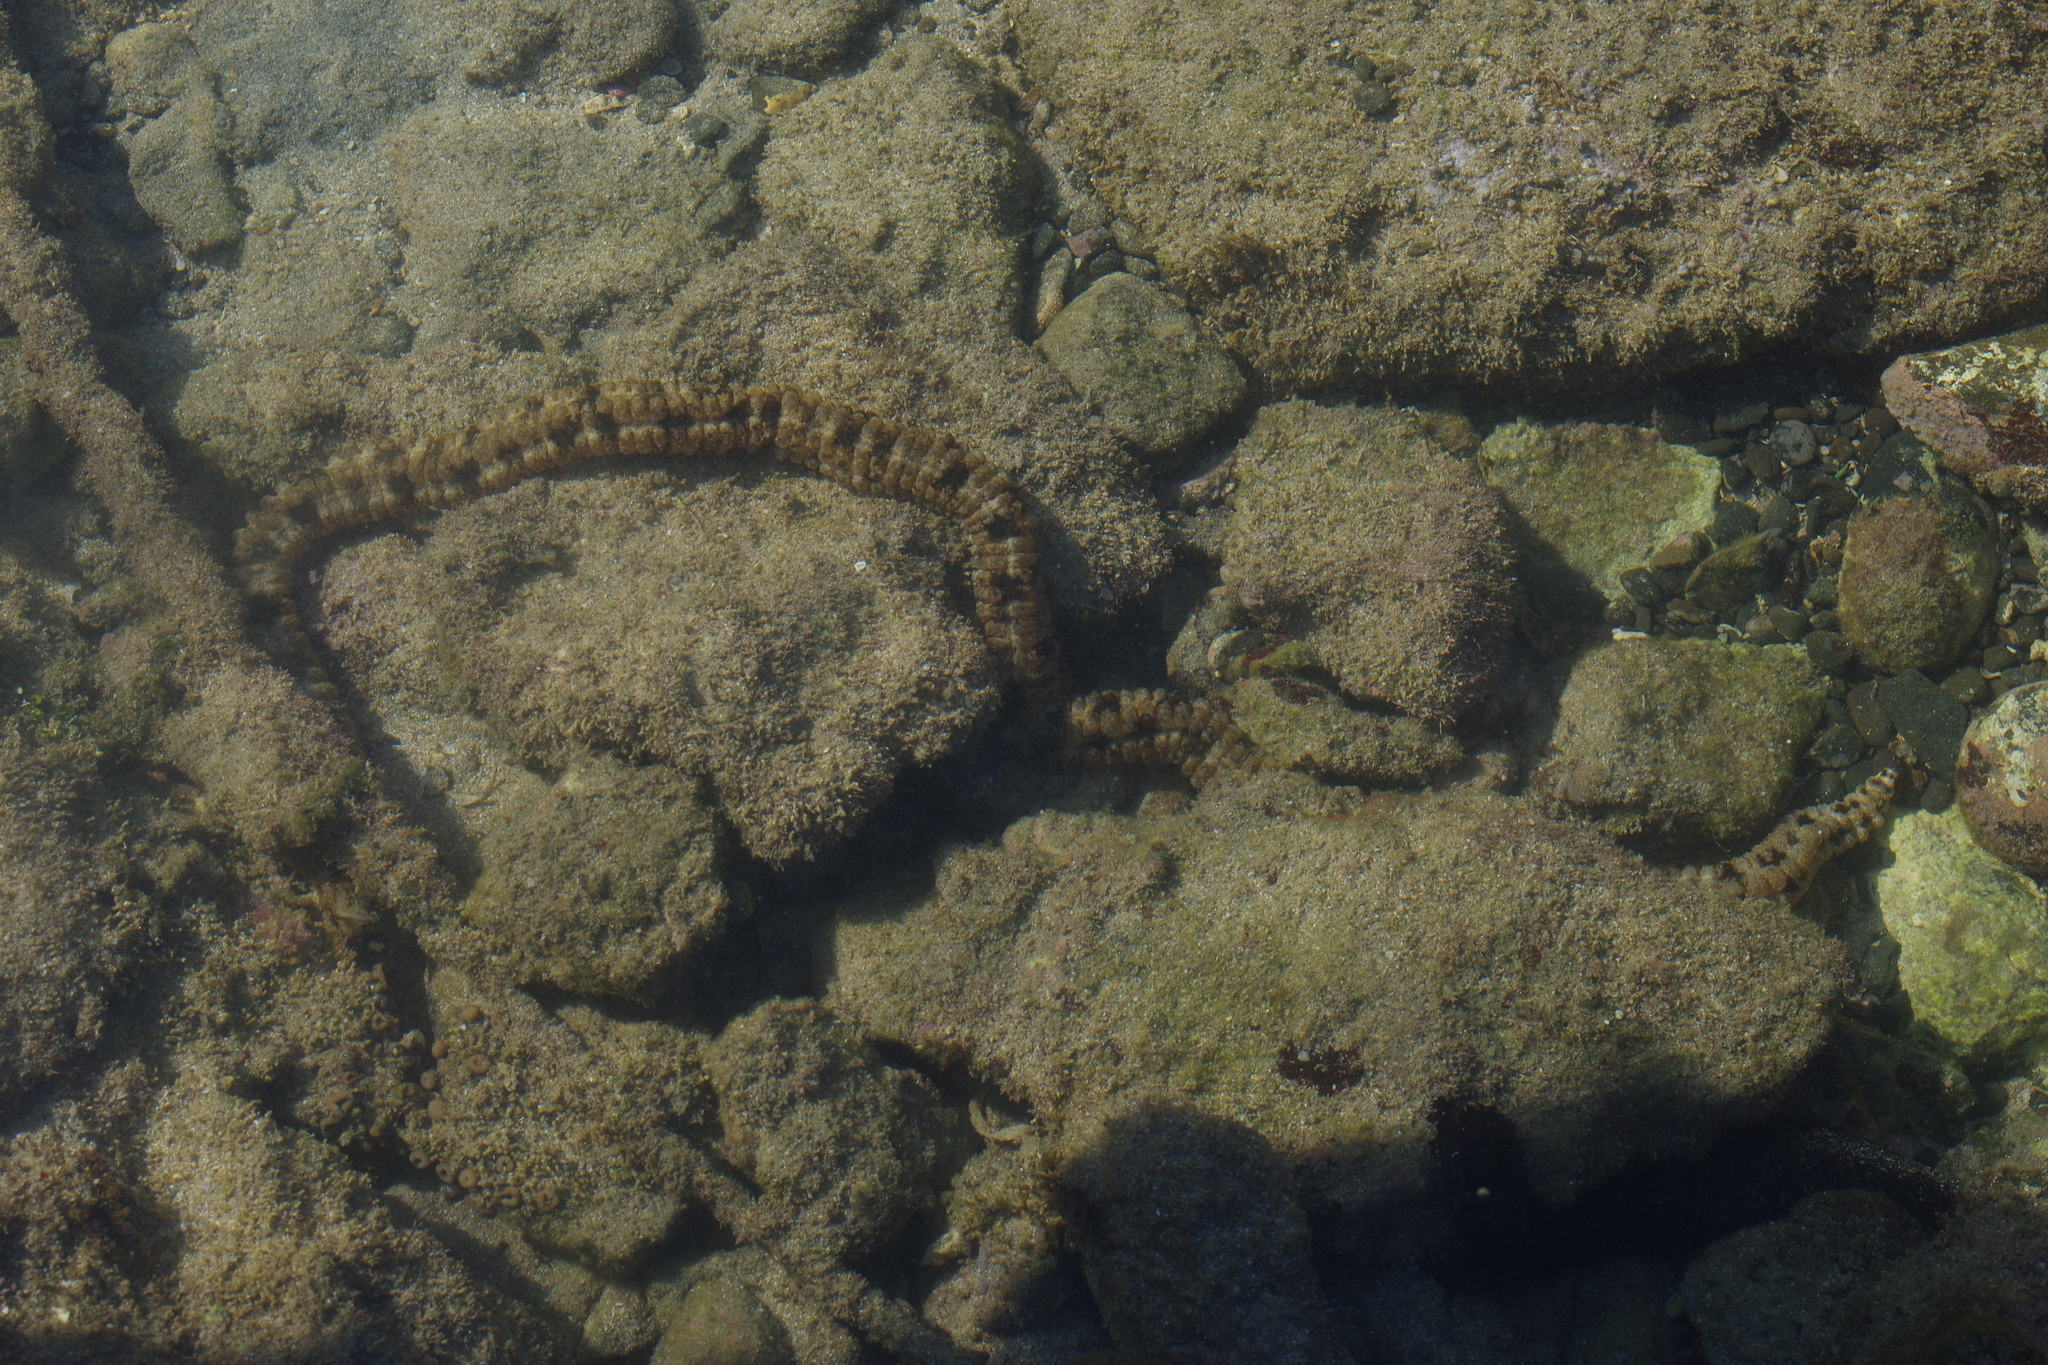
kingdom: Animalia
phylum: Echinodermata
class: Holothuroidea
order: Apodida
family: Synaptidae
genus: Synapta
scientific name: Synapta maculata
